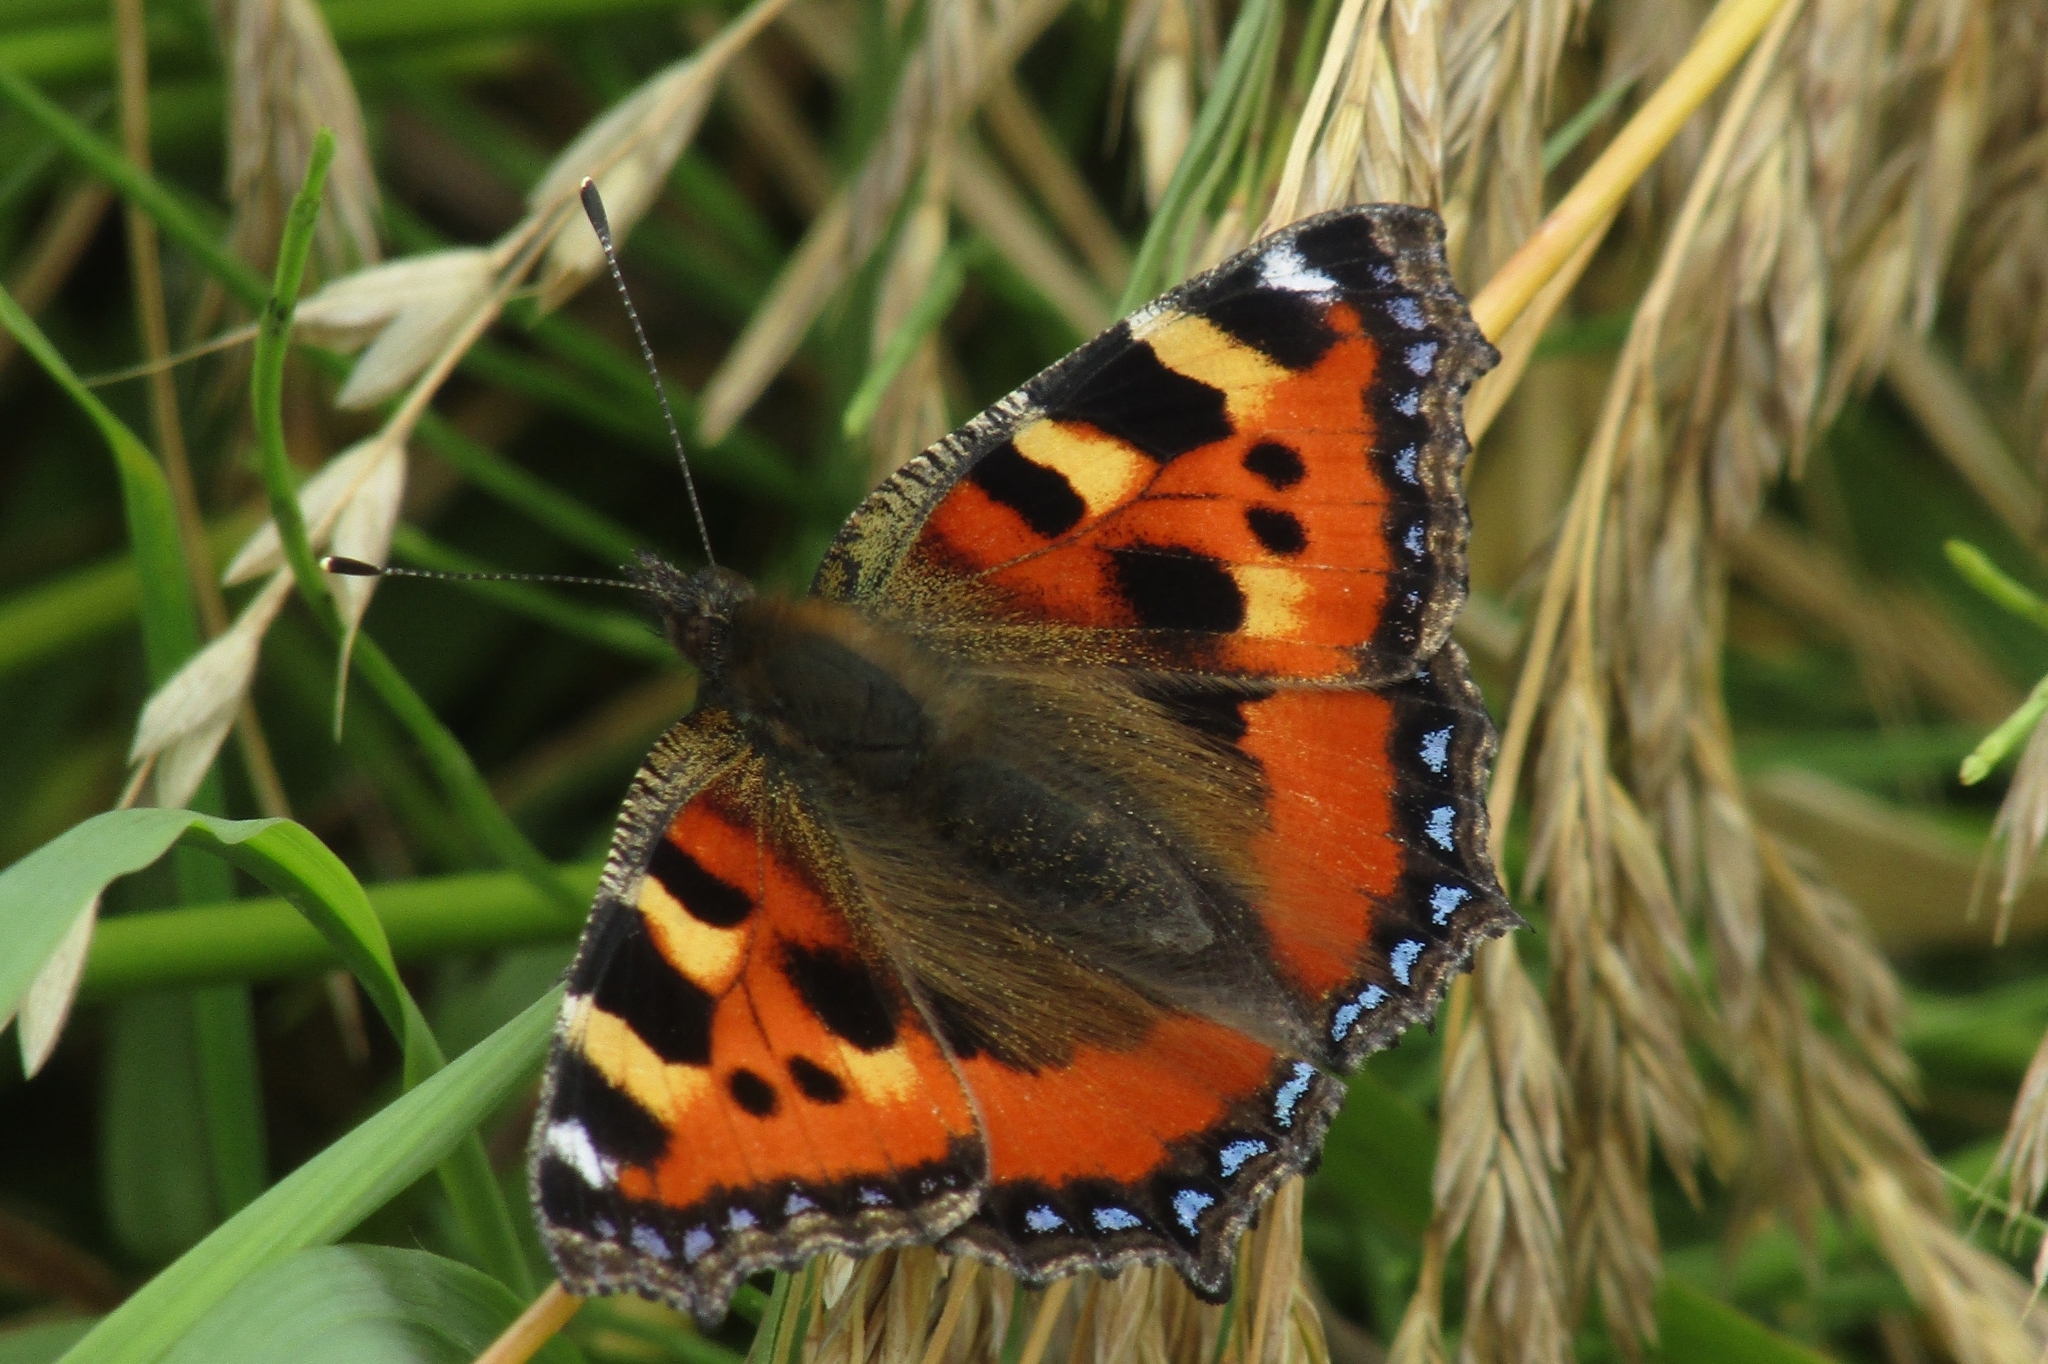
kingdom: Animalia
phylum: Arthropoda
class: Insecta
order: Lepidoptera
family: Nymphalidae
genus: Aglais
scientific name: Aglais urticae
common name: Small tortoiseshell
